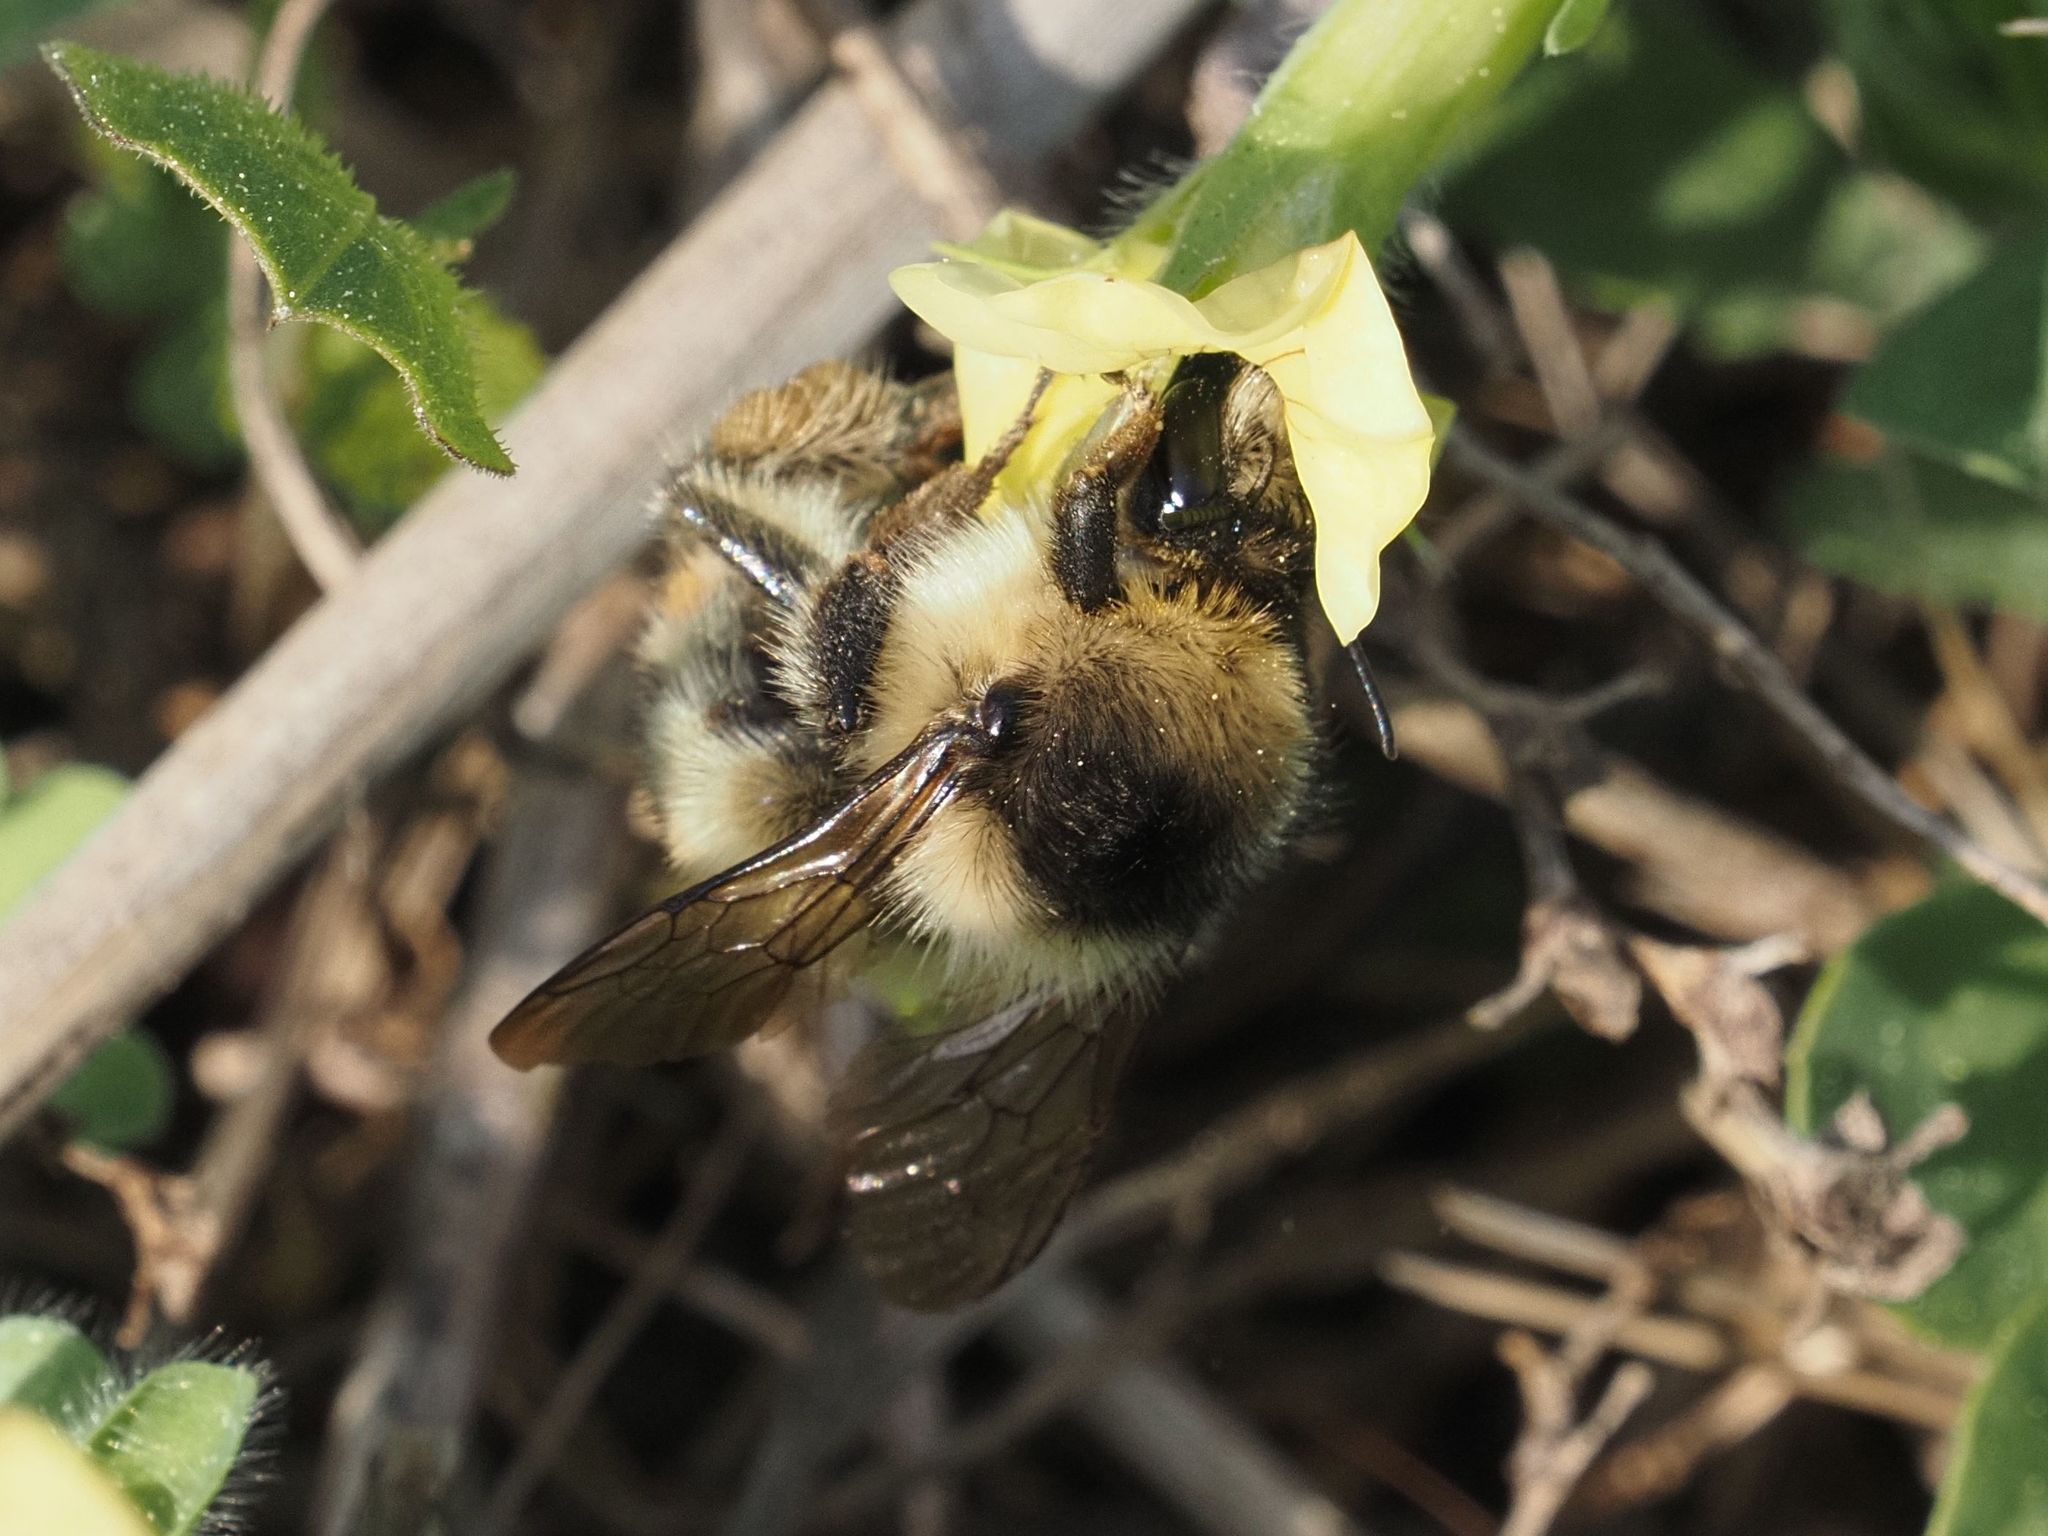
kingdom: Animalia
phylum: Arthropoda
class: Insecta
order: Hymenoptera
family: Apidae
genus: Bombus
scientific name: Bombus sylvarum
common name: Shrill carder bee
